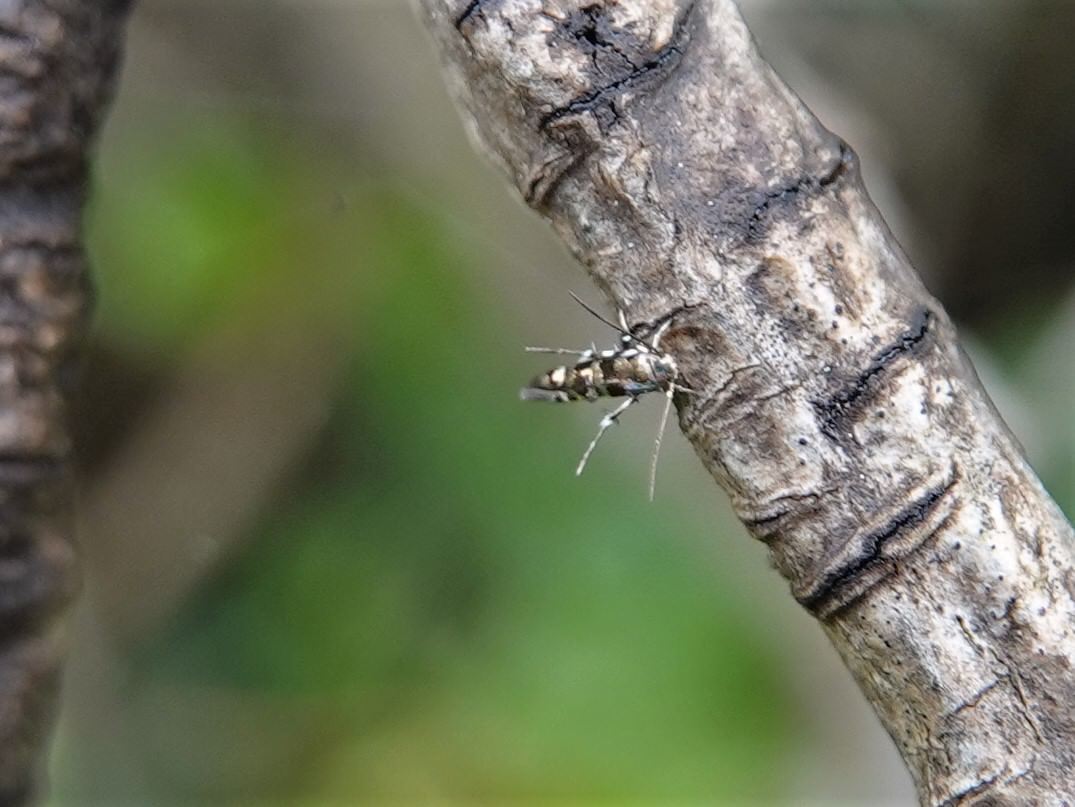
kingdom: Animalia
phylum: Arthropoda
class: Insecta
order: Lepidoptera
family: Momphidae
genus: Zapyrastra
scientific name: Zapyrastra calliphana
